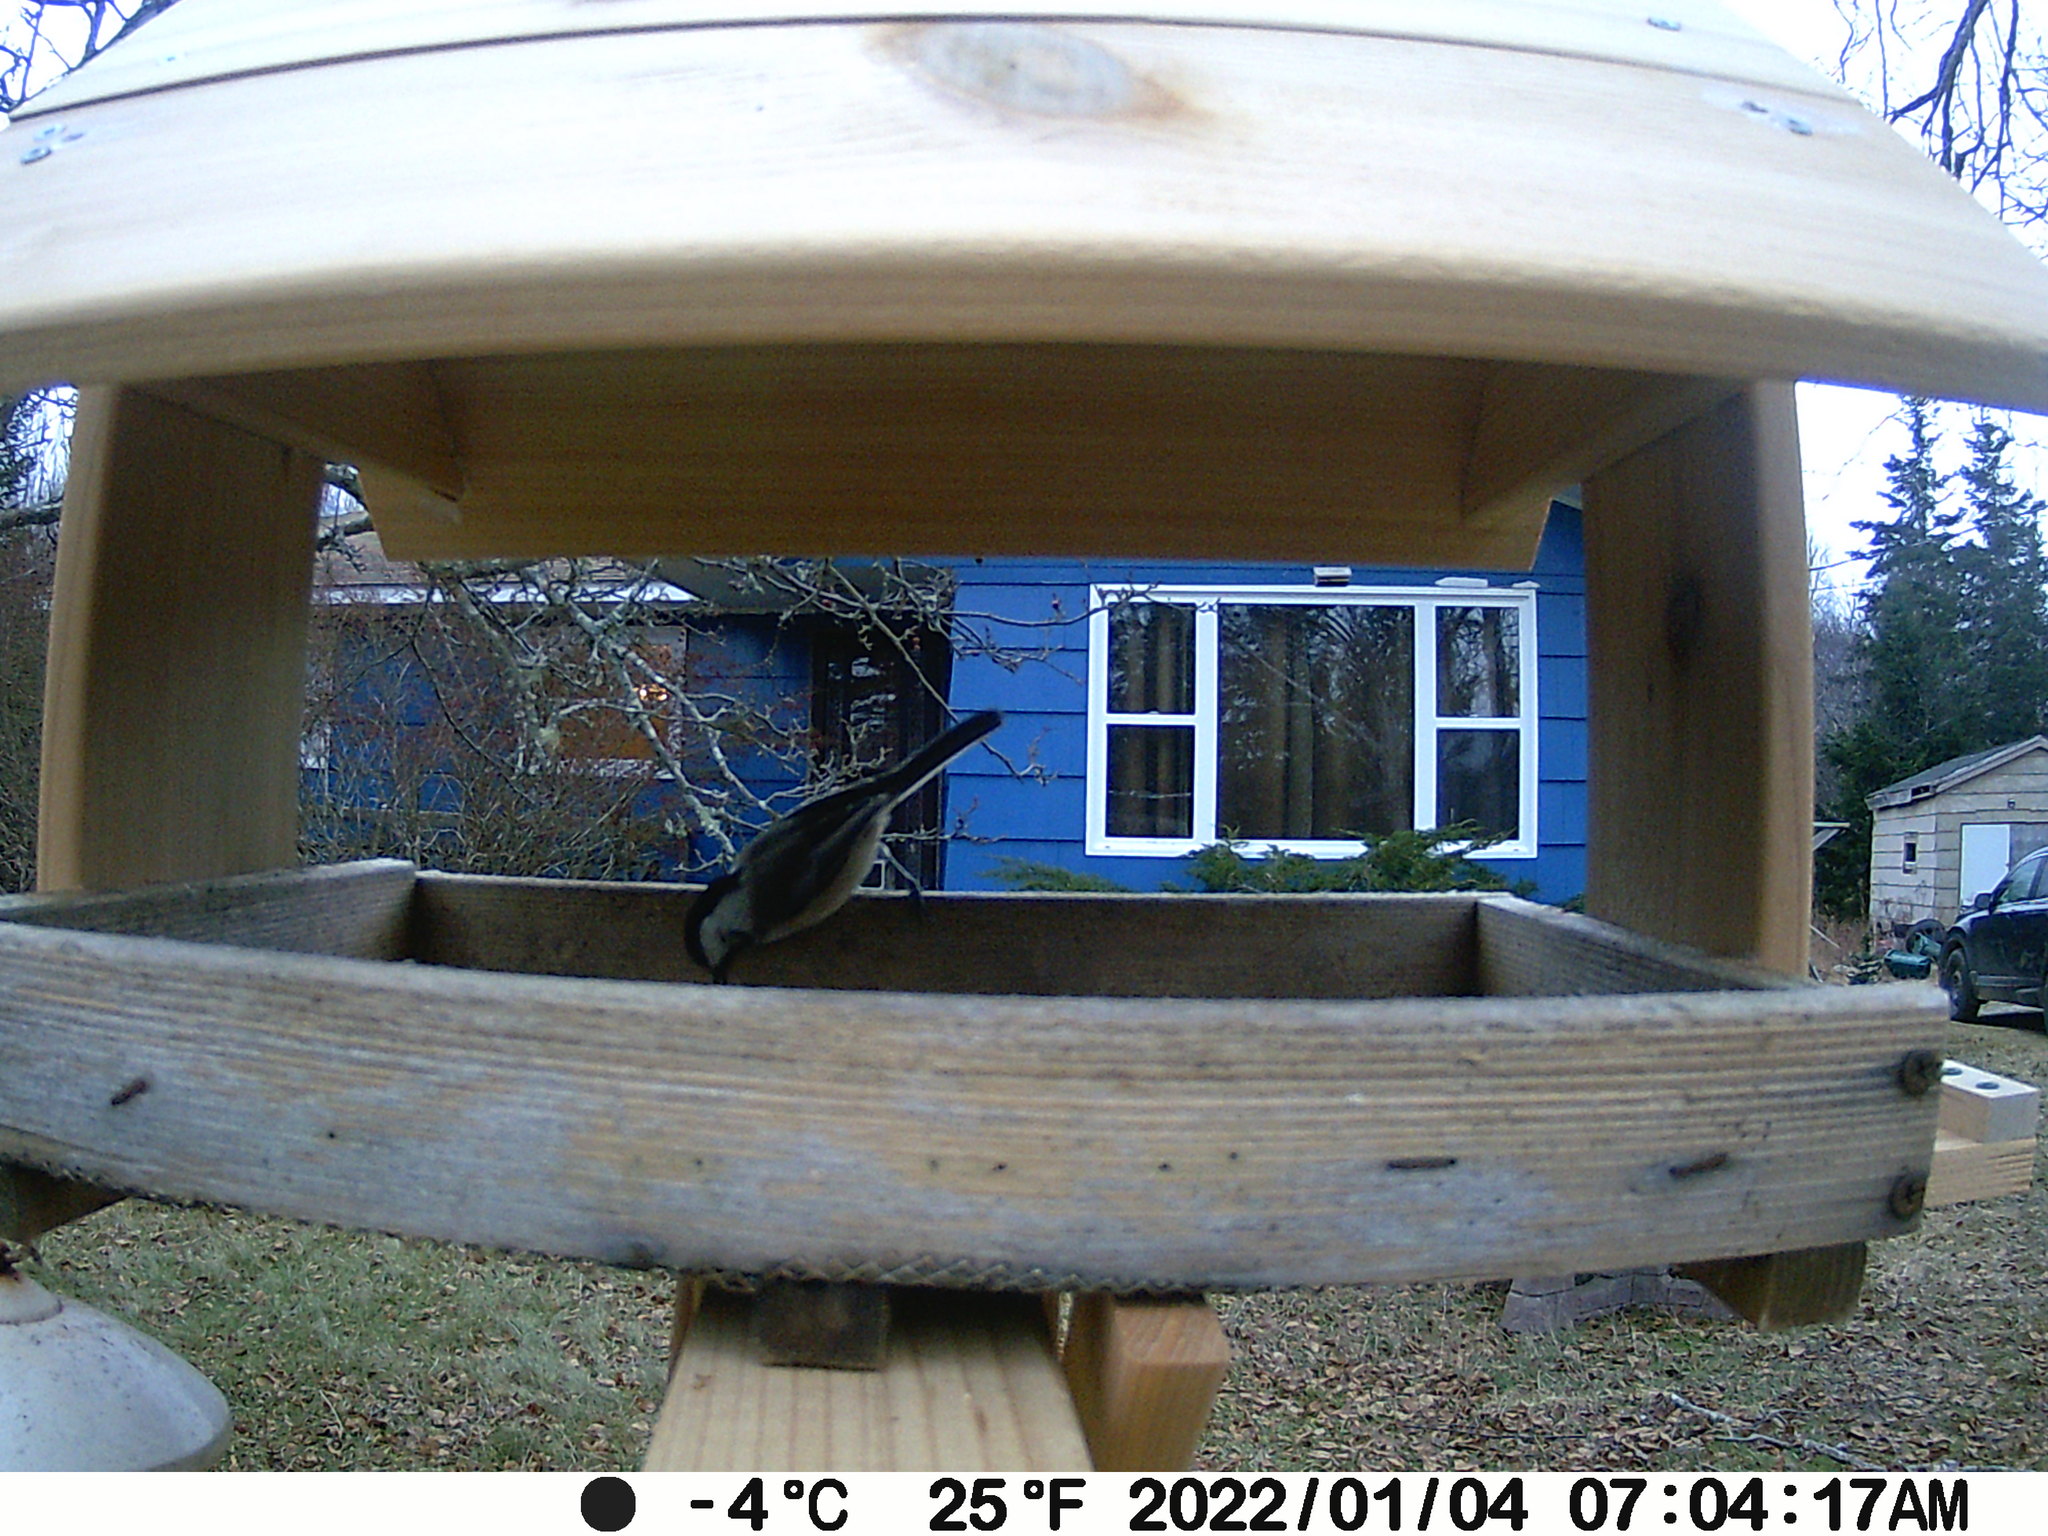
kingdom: Animalia
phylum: Chordata
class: Aves
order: Passeriformes
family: Paridae
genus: Poecile
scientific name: Poecile atricapillus
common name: Black-capped chickadee
